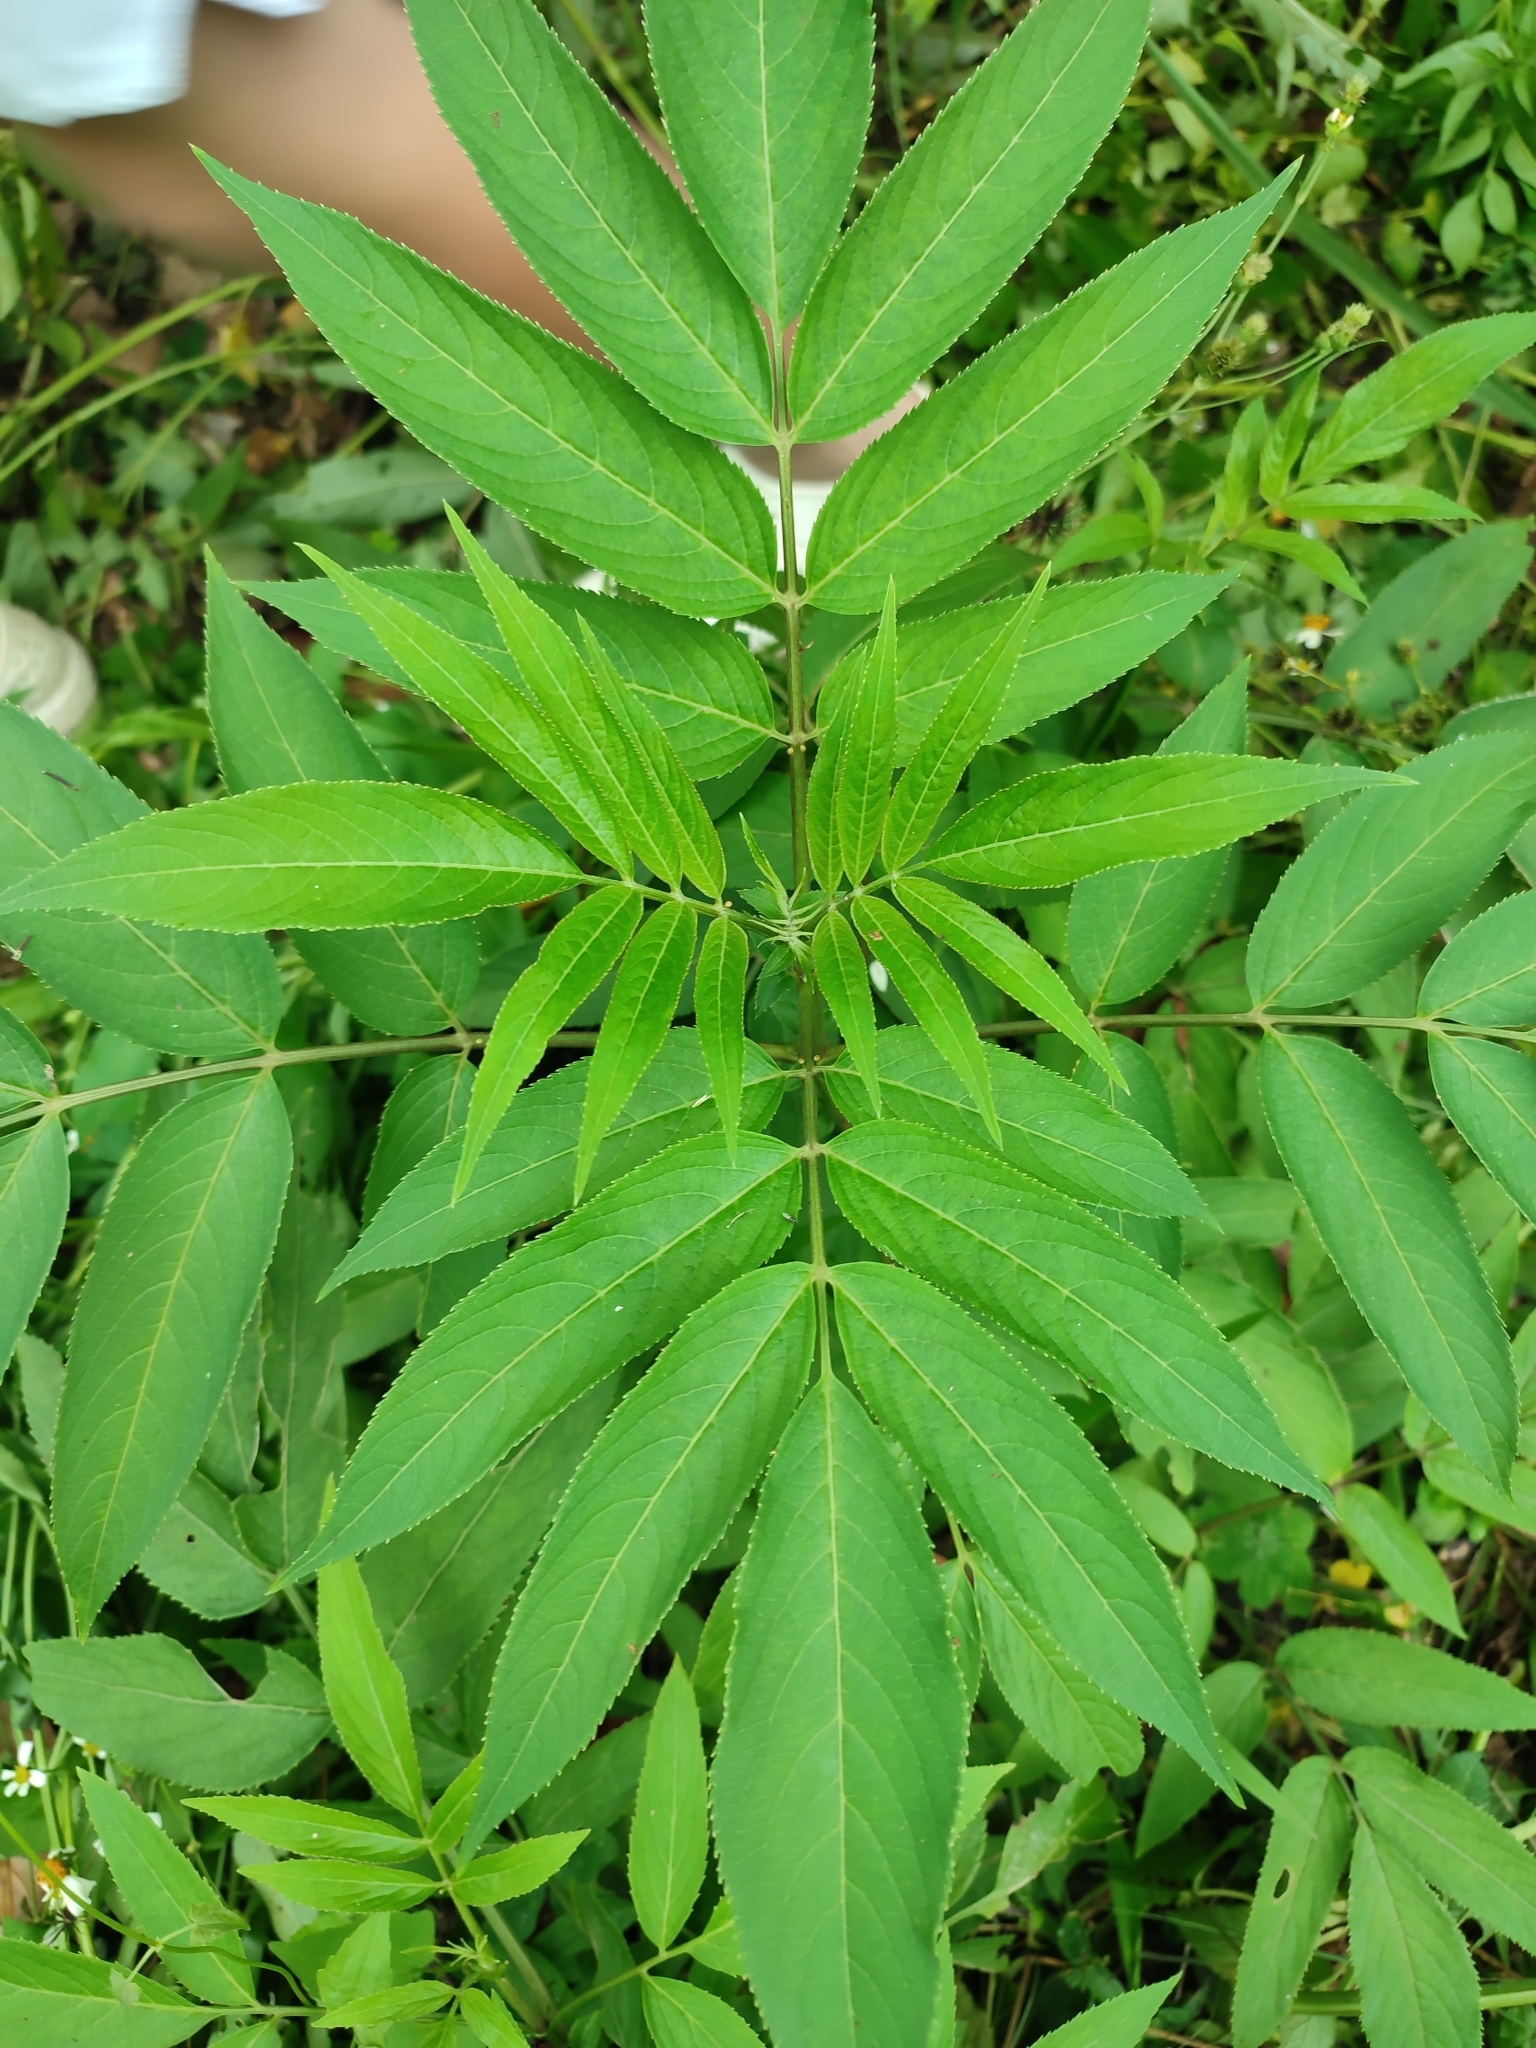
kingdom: Plantae
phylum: Tracheophyta
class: Magnoliopsida
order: Dipsacales
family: Viburnaceae
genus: Sambucus
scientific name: Sambucus javanica
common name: Chinese elder
